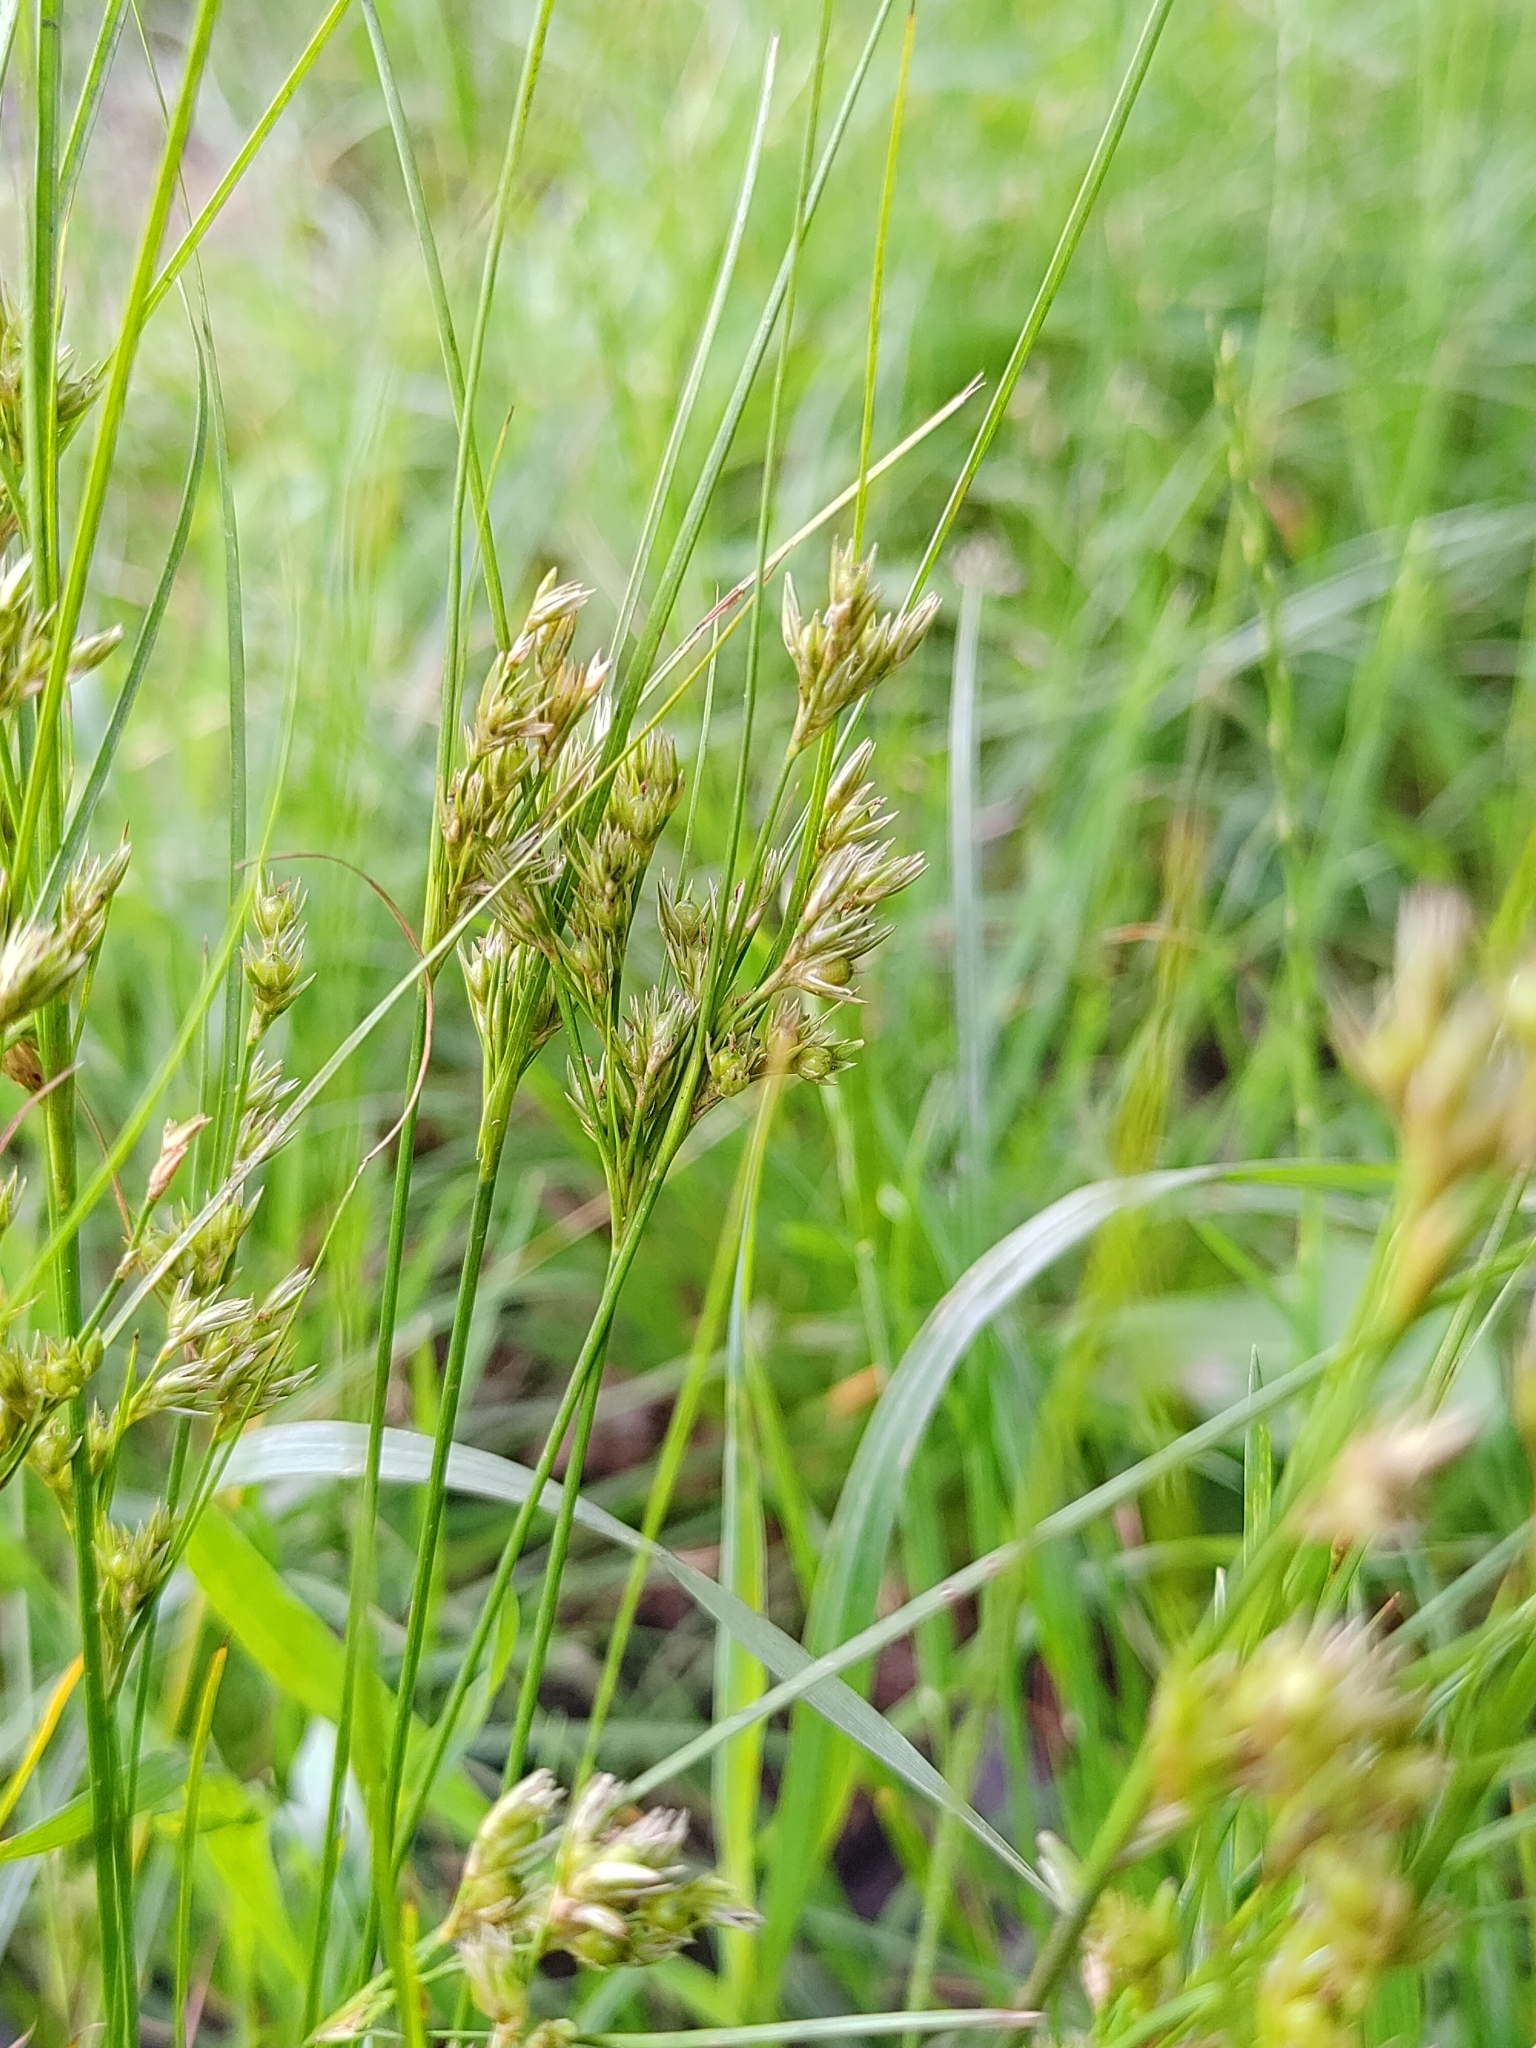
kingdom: Plantae
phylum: Tracheophyta
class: Liliopsida
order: Poales
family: Juncaceae
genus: Juncus
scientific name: Juncus tenuis
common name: Slender rush
